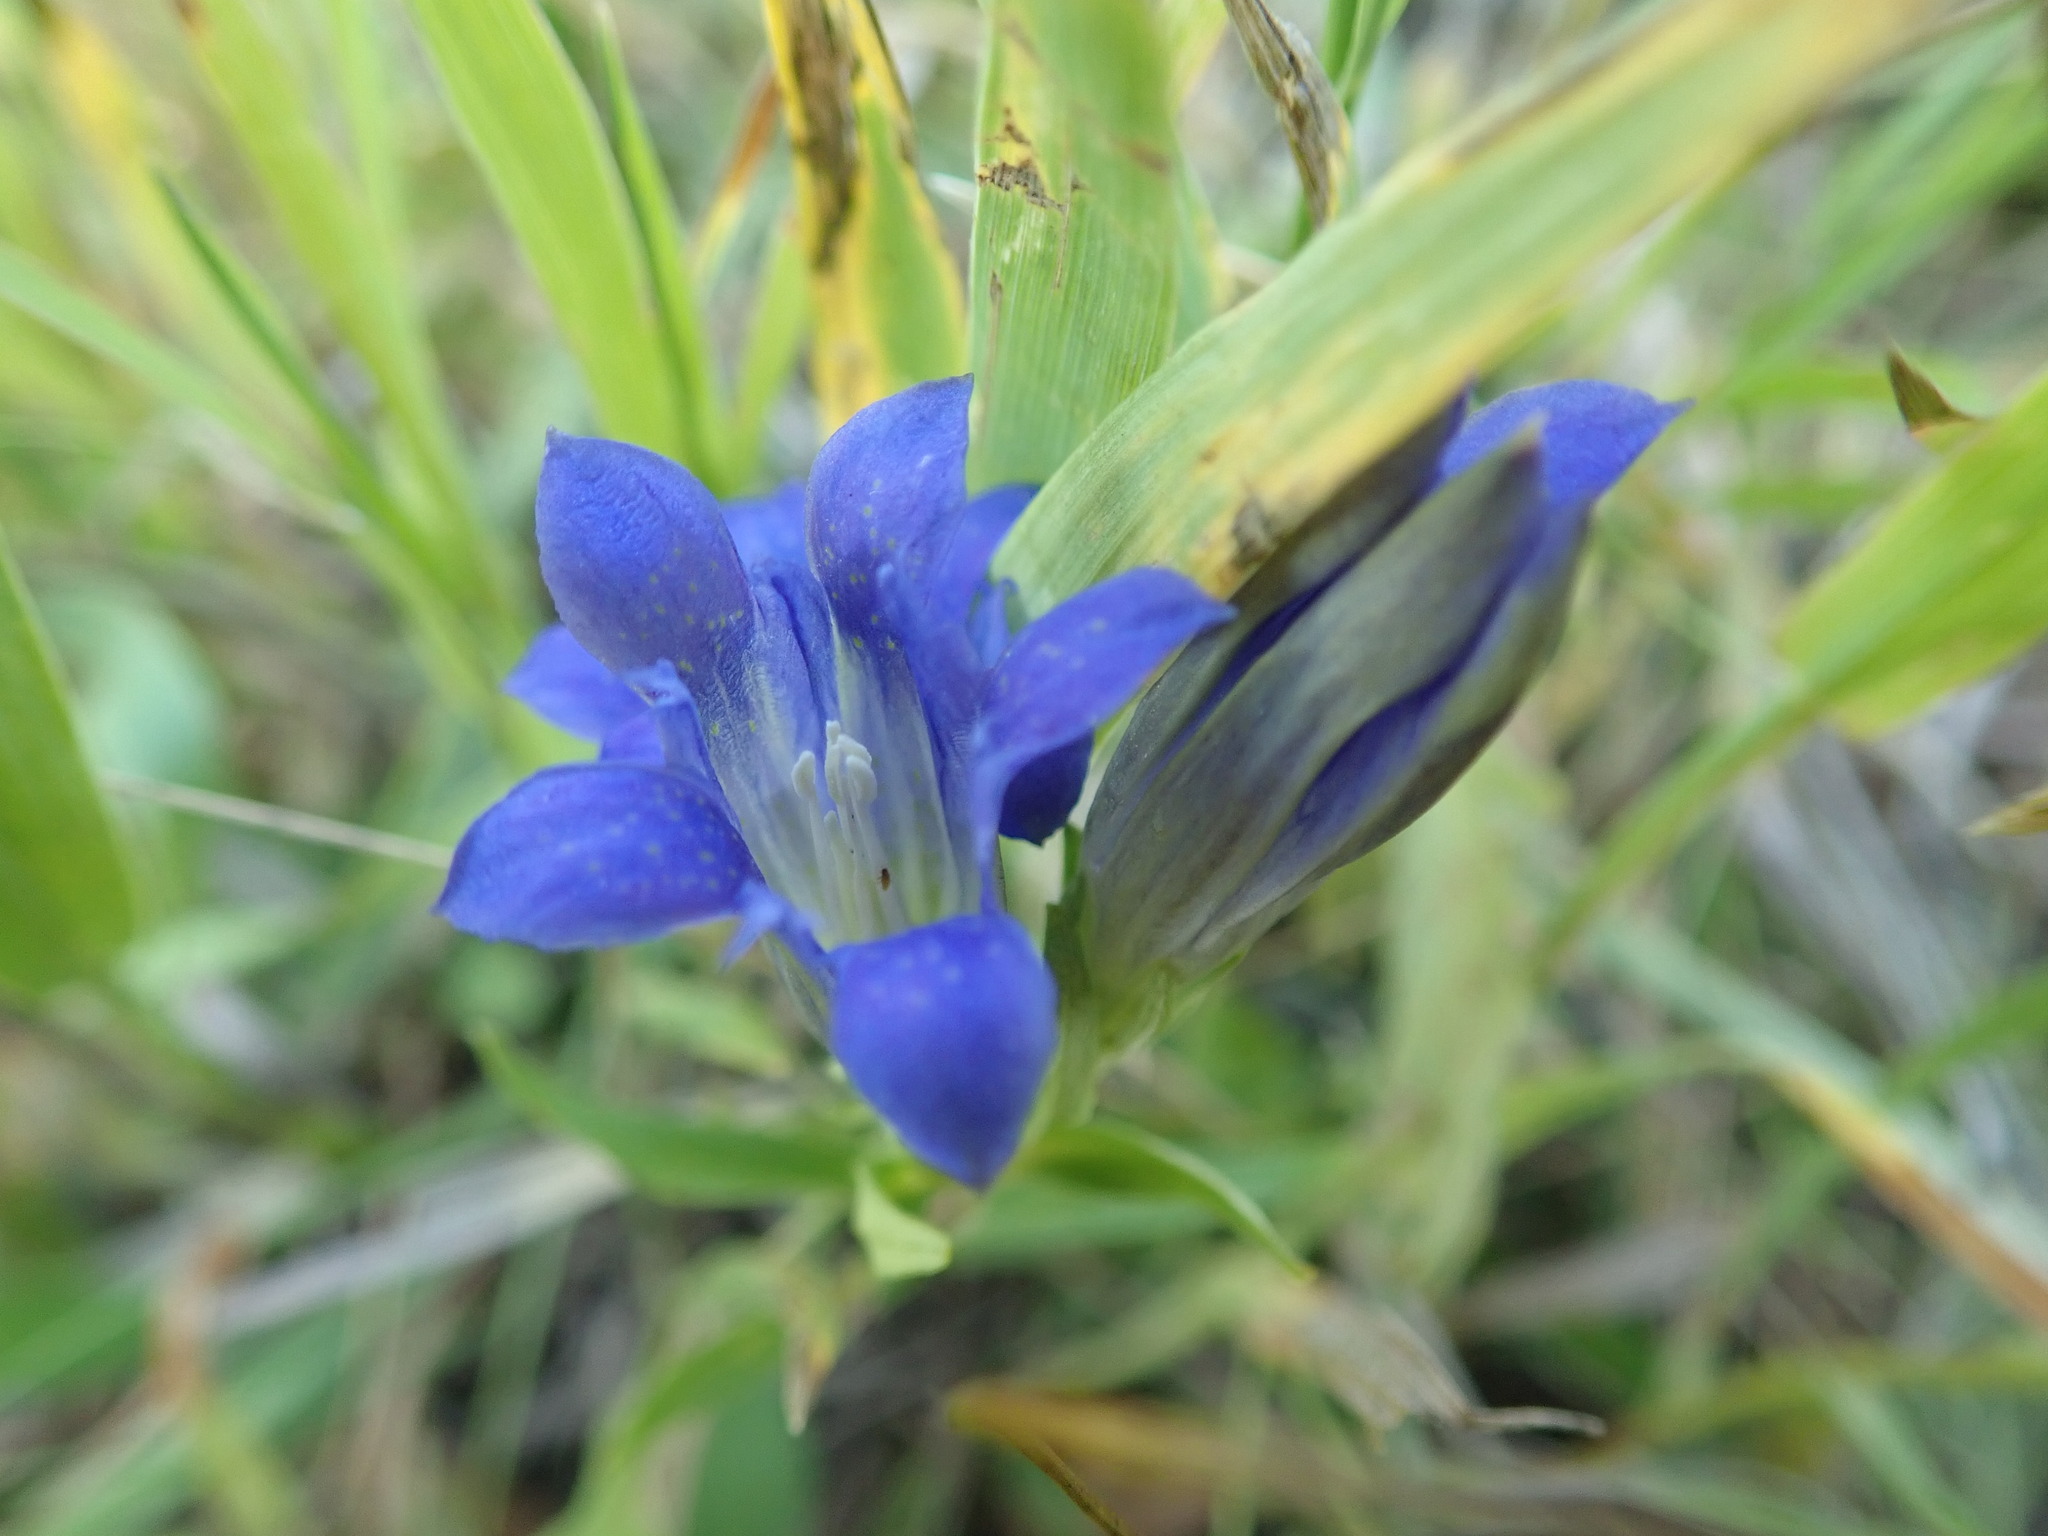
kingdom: Plantae
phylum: Tracheophyta
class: Magnoliopsida
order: Gentianales
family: Gentianaceae
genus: Gentiana
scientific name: Gentiana affinis
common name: Rocky mountain gentian
